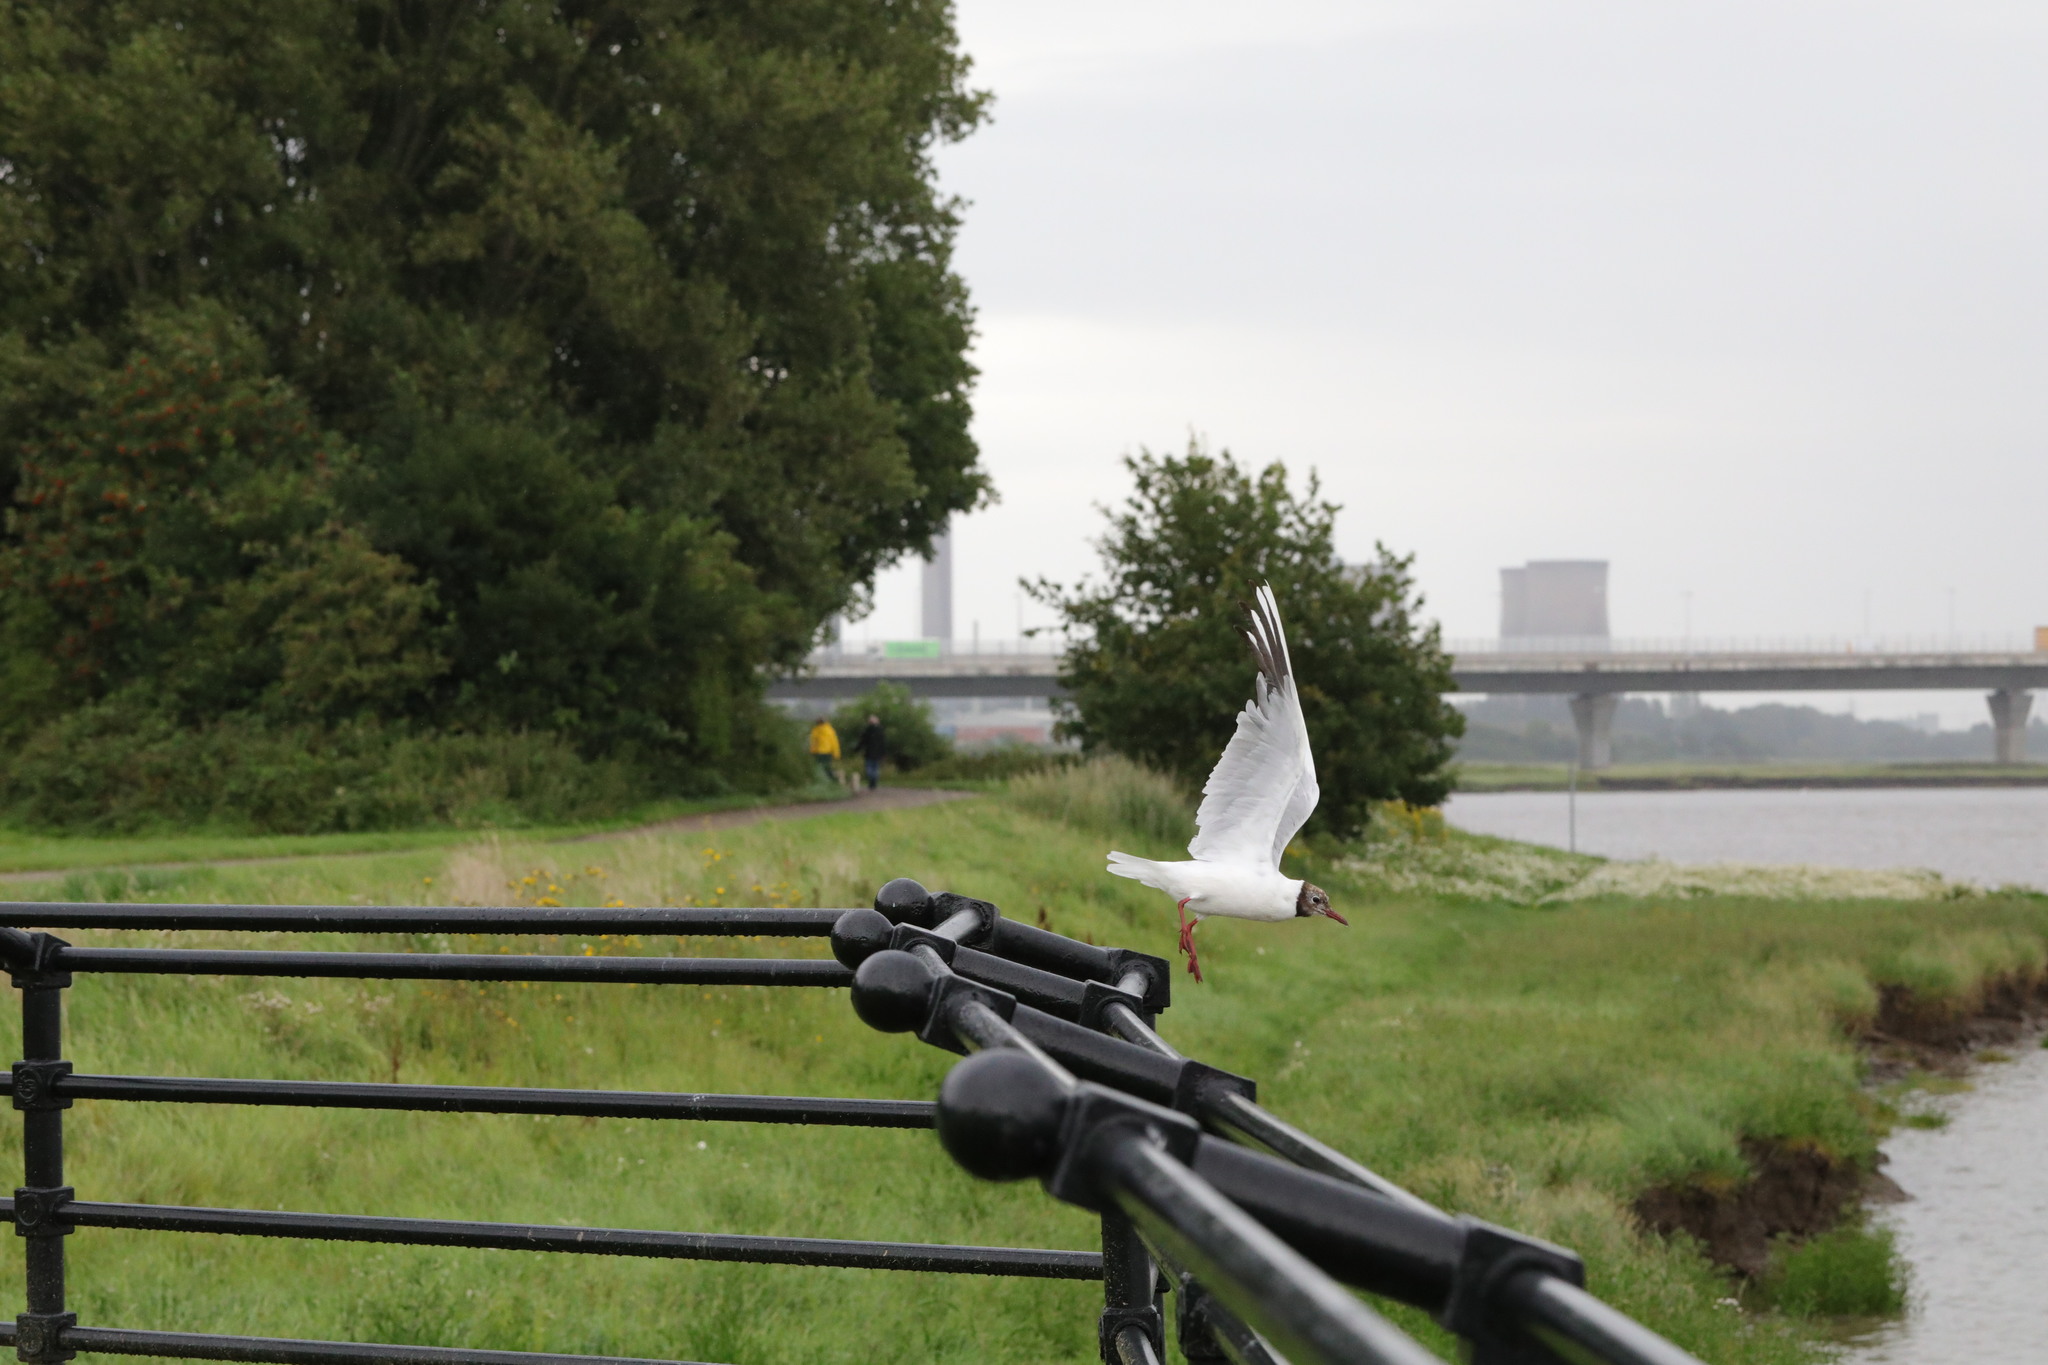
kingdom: Animalia
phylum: Chordata
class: Aves
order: Charadriiformes
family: Laridae
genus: Chroicocephalus
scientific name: Chroicocephalus ridibundus
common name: Black-headed gull
